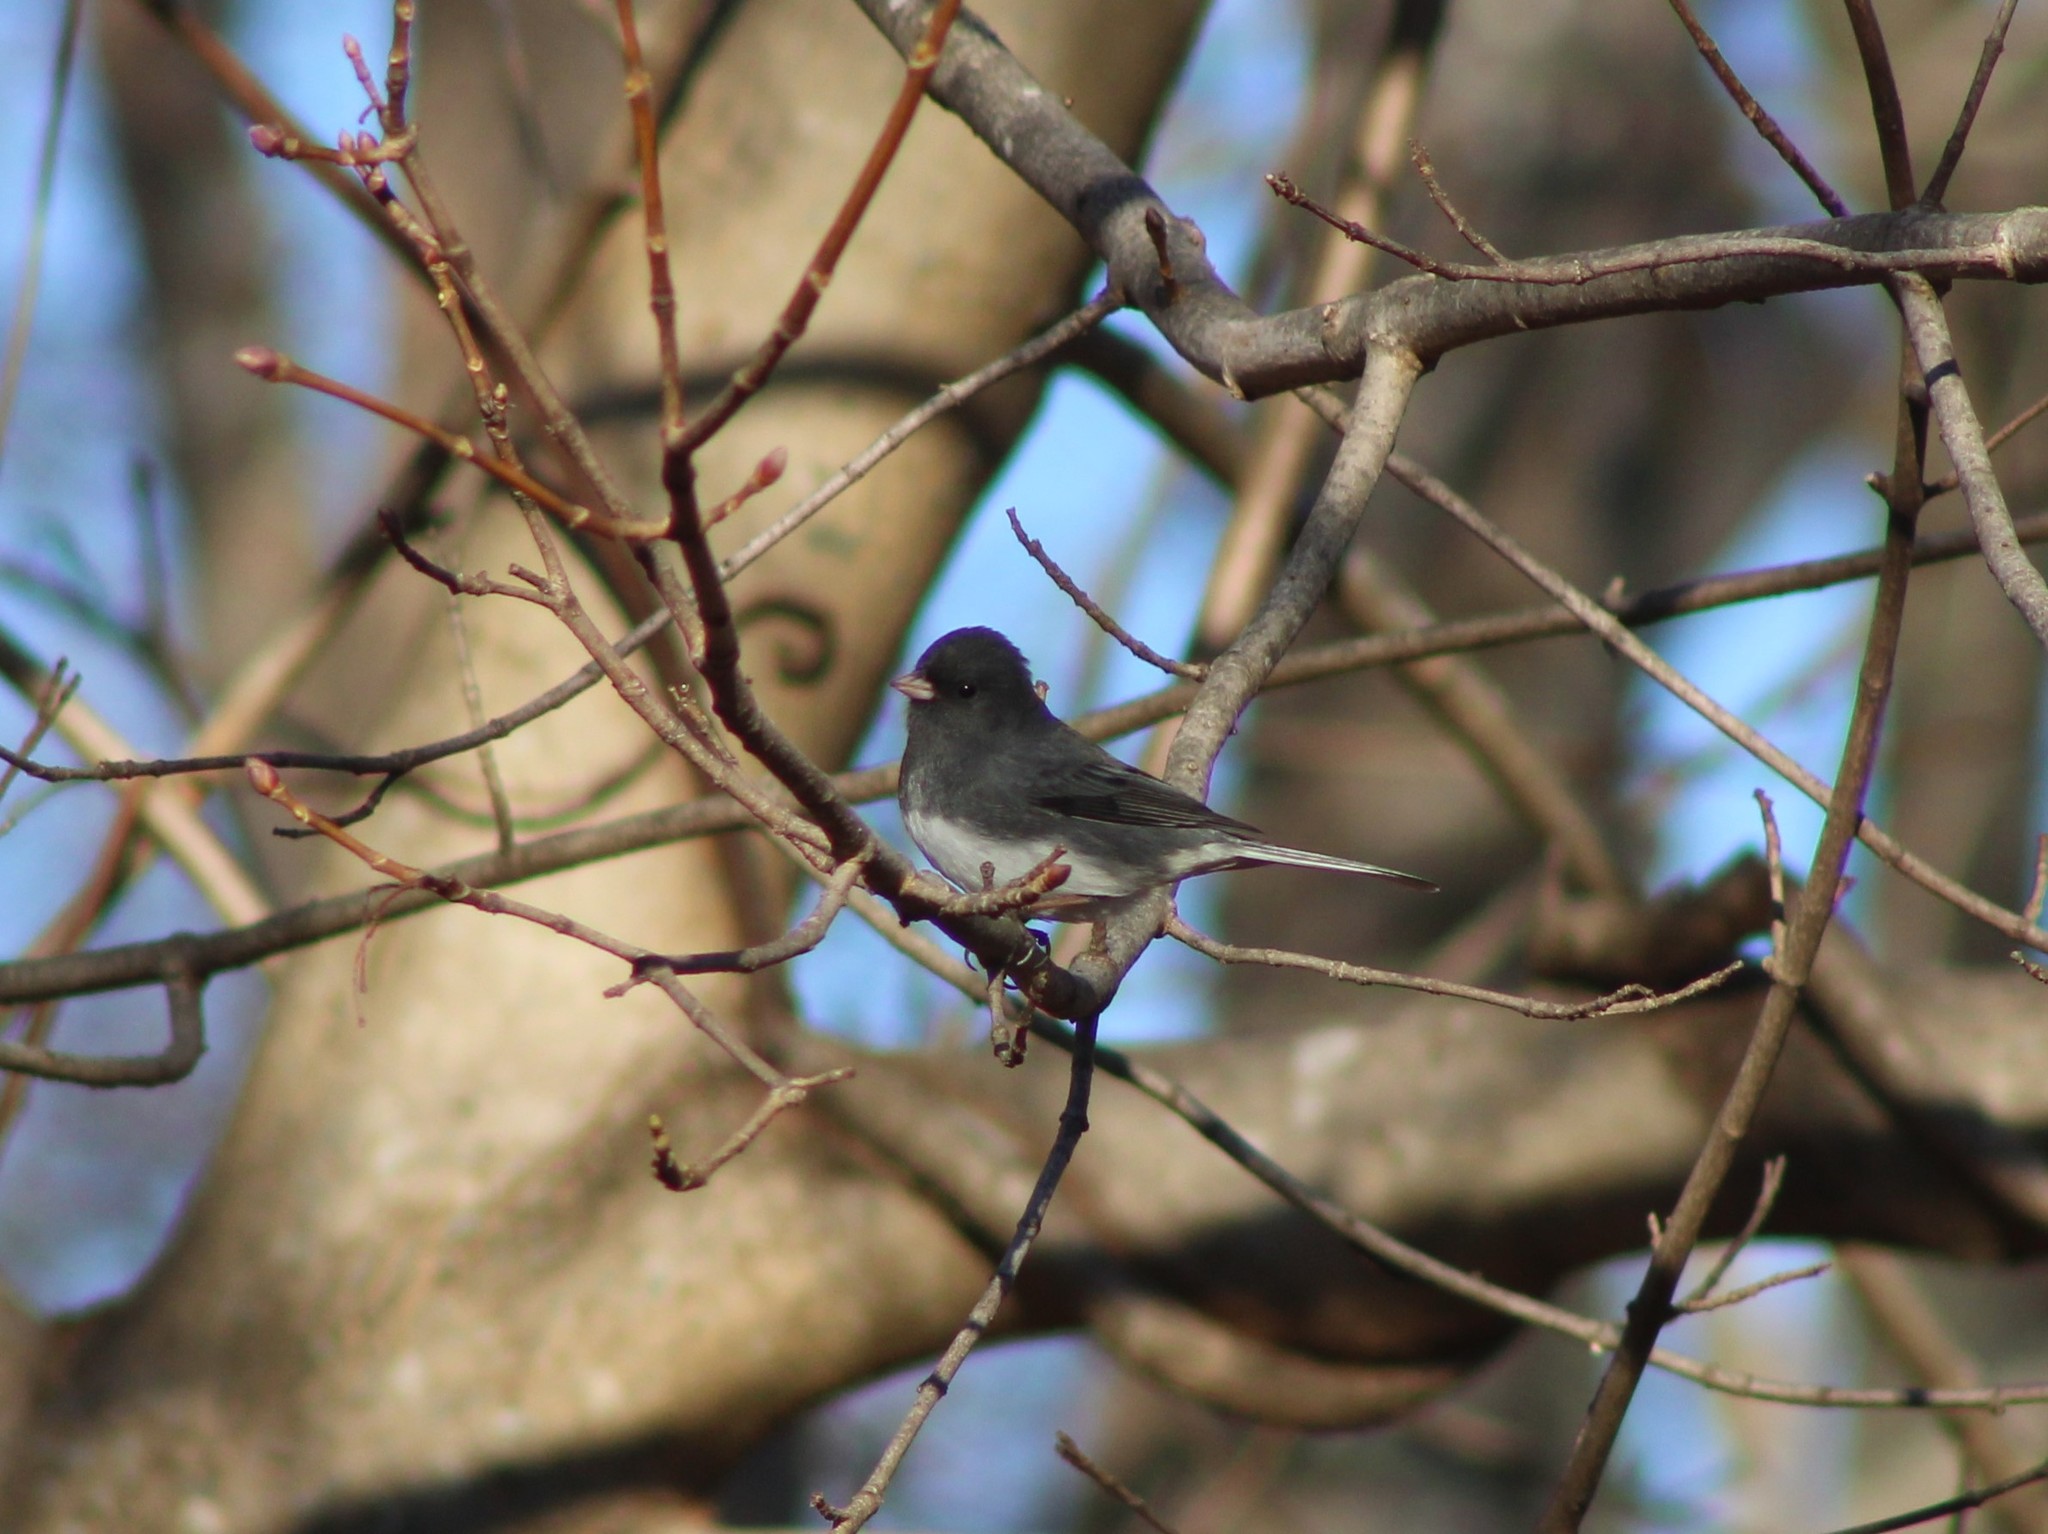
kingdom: Animalia
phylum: Chordata
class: Aves
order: Passeriformes
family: Passerellidae
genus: Junco
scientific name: Junco hyemalis
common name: Dark-eyed junco
